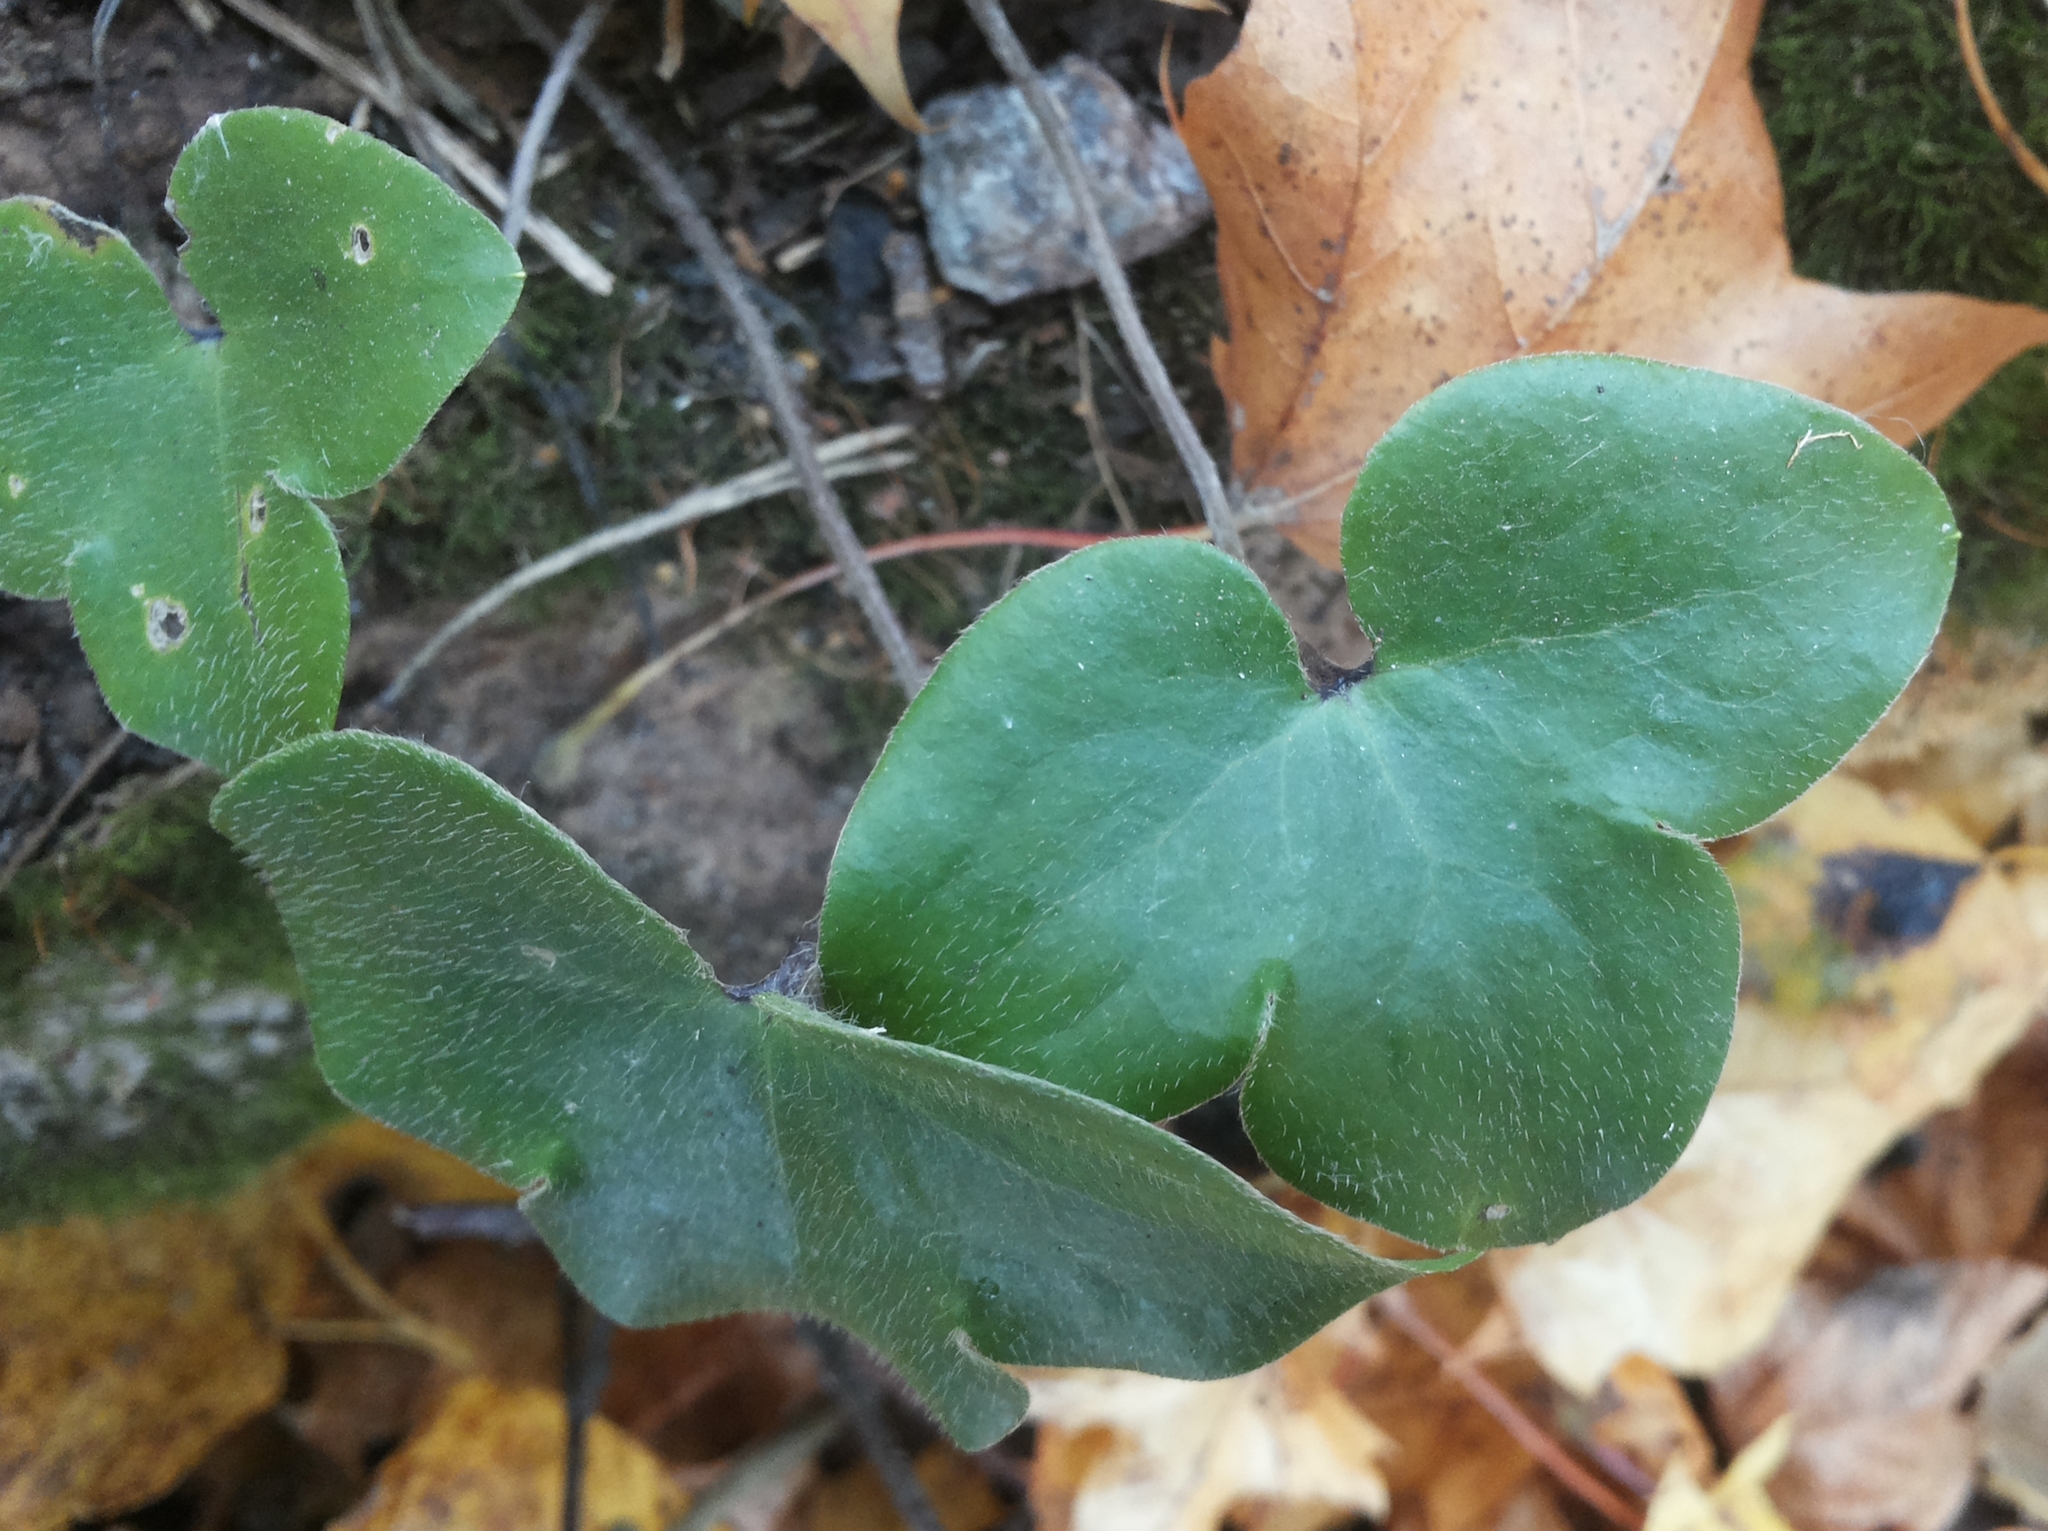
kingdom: Plantae
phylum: Tracheophyta
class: Magnoliopsida
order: Ranunculales
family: Ranunculaceae
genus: Hepatica
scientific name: Hepatica nobilis
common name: Liverleaf
